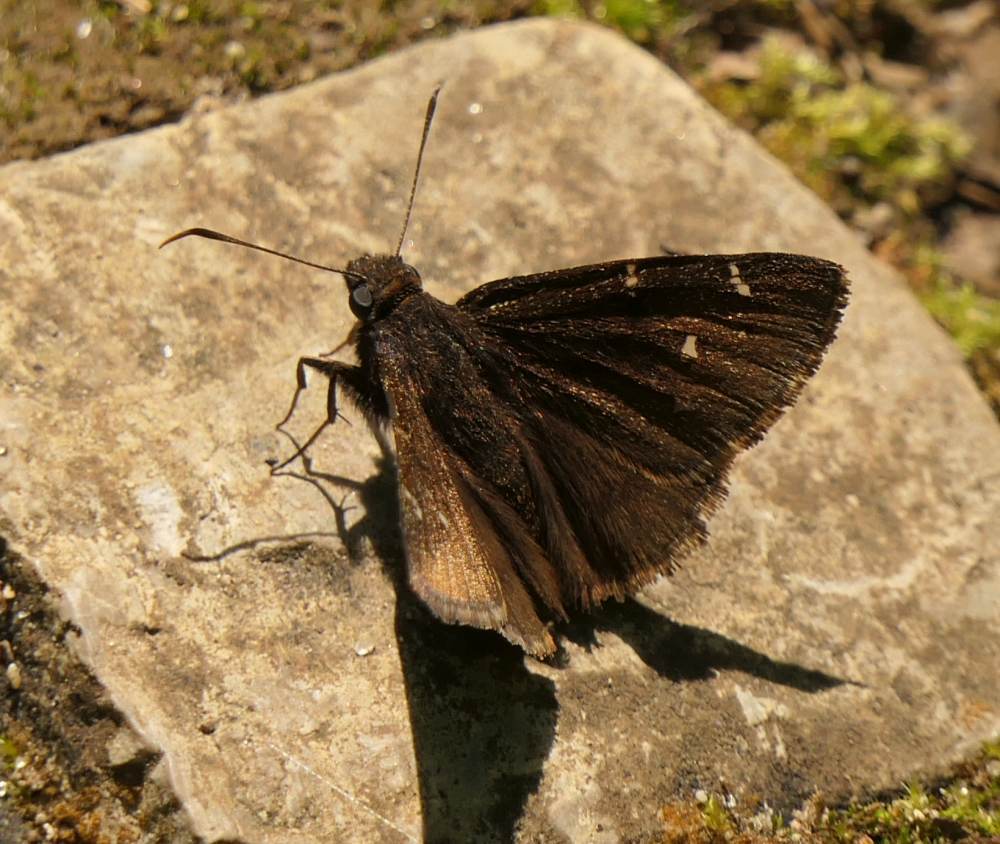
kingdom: Animalia
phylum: Arthropoda
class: Insecta
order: Lepidoptera
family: Hesperiidae
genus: Thorybes
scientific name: Thorybes pylades
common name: Northern cloudywing
